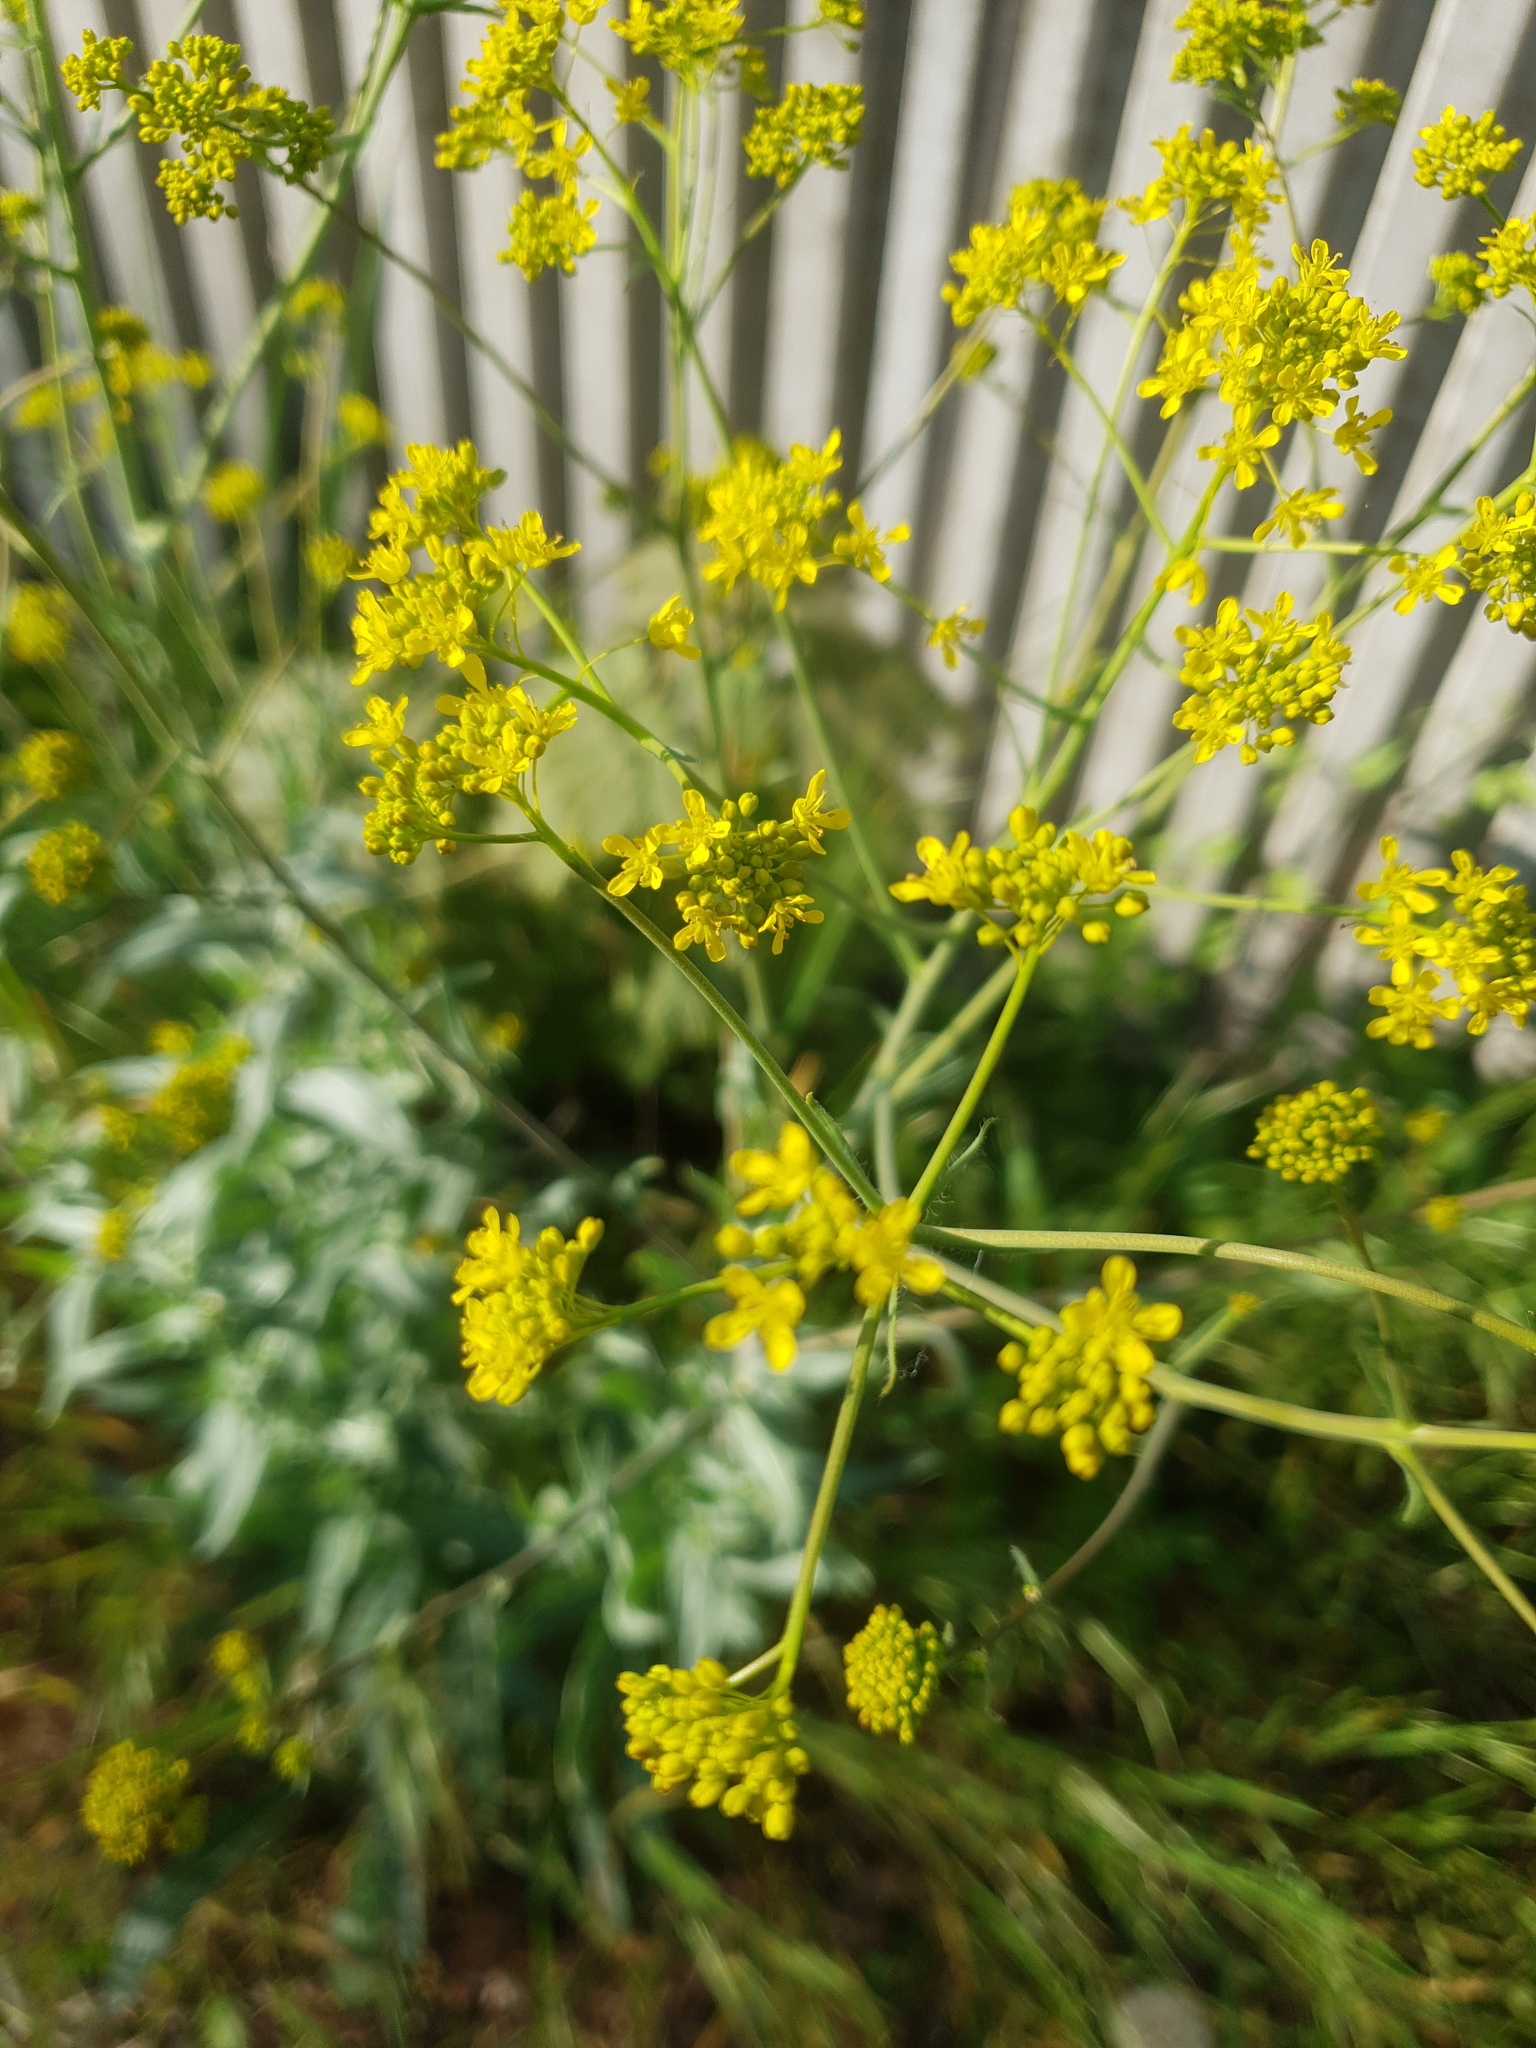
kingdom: Plantae
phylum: Tracheophyta
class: Magnoliopsida
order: Brassicales
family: Brassicaceae
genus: Isatis
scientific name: Isatis tinctoria
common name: Woad
